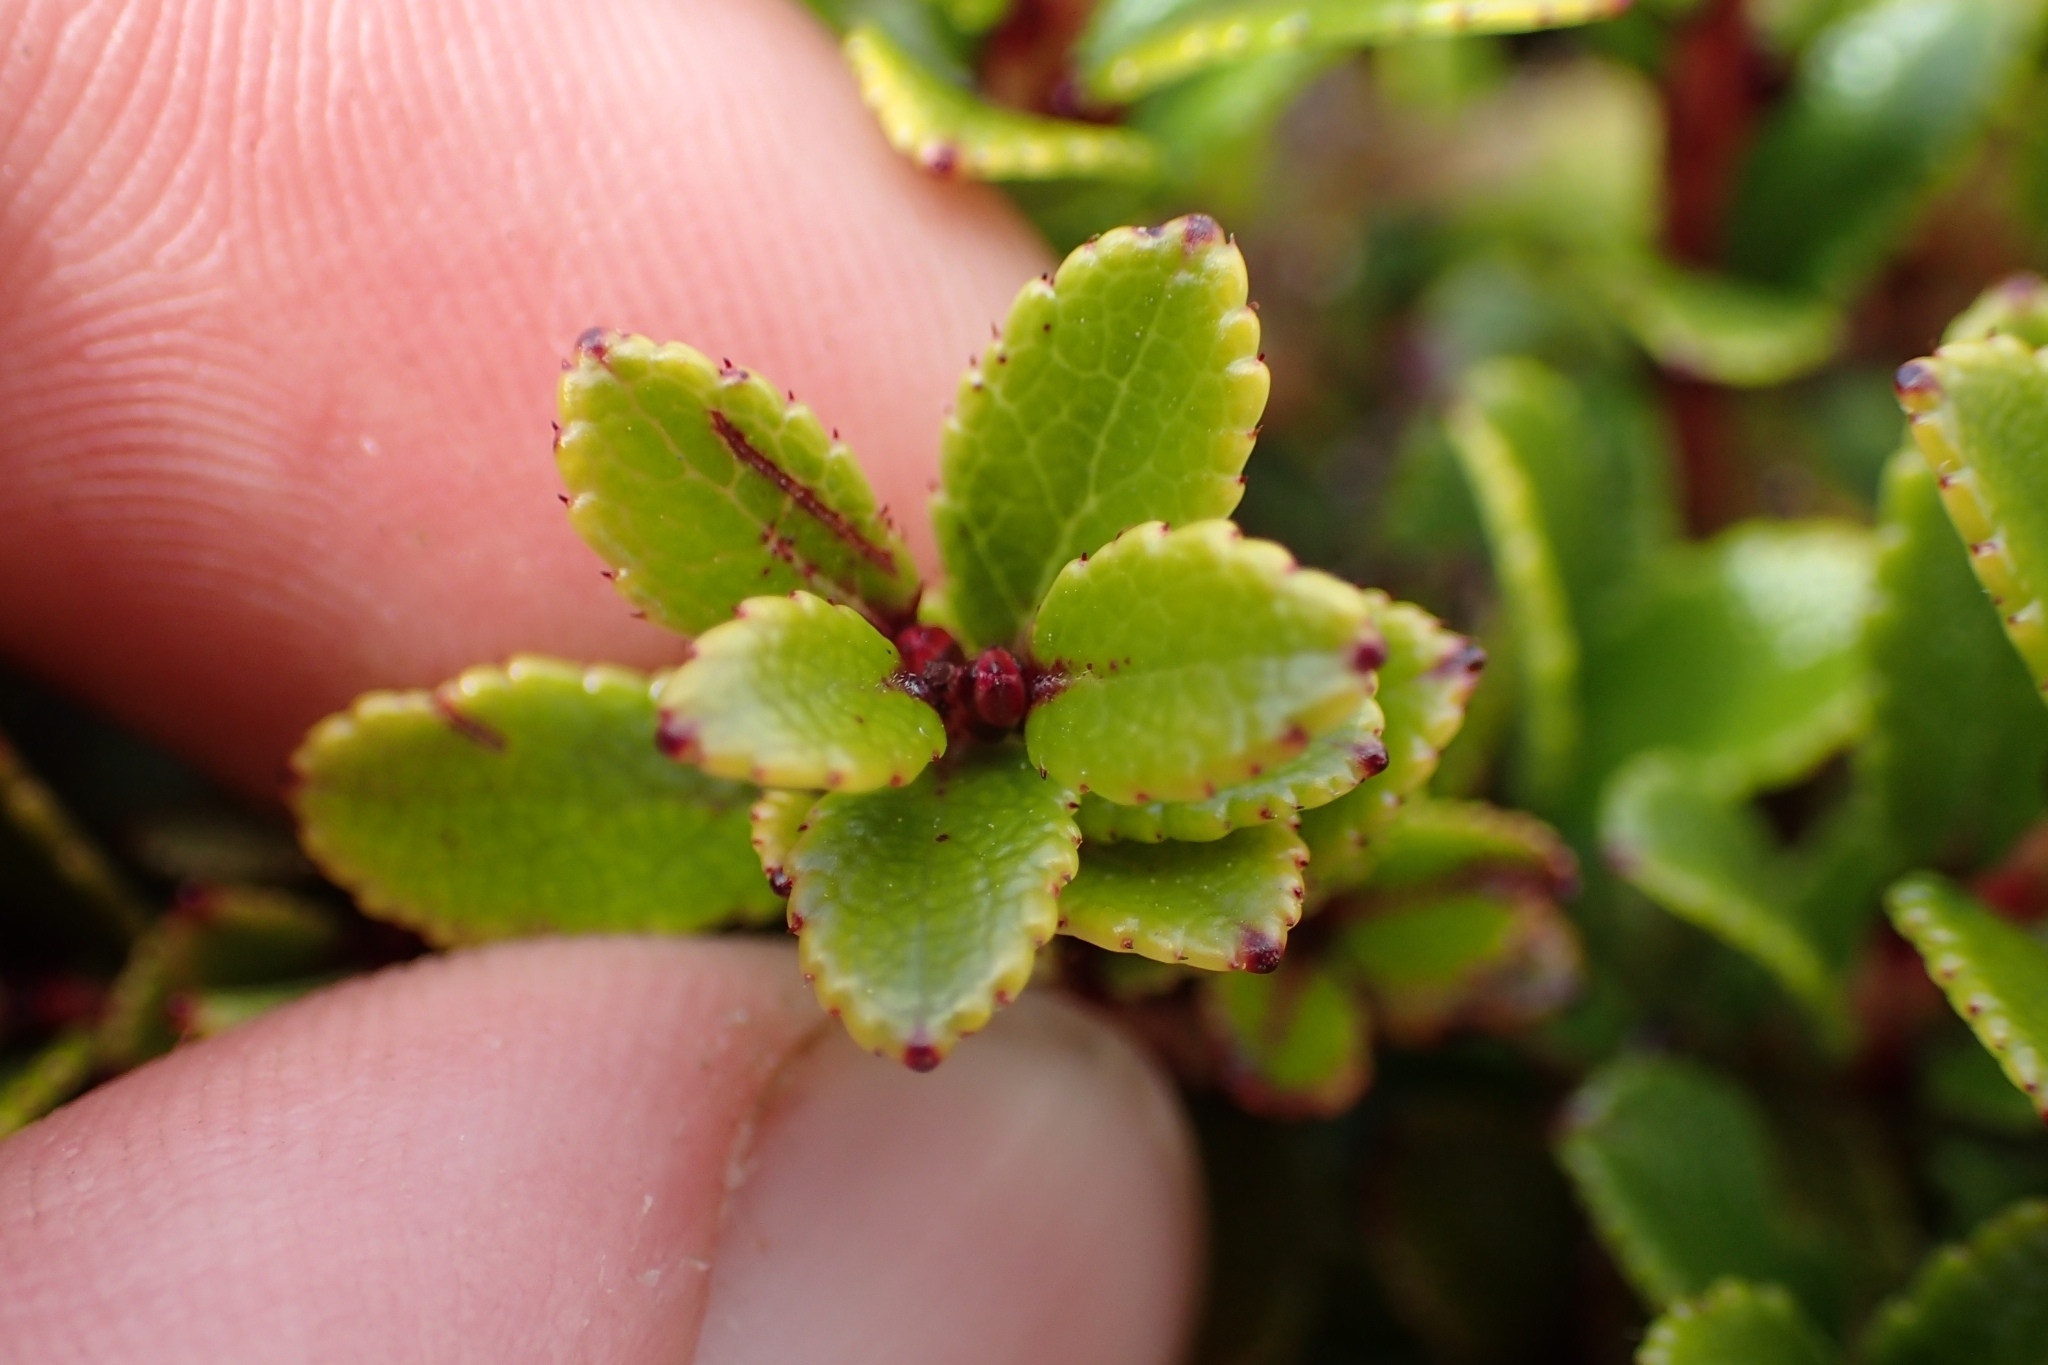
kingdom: Plantae
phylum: Tracheophyta
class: Magnoliopsida
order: Ericales
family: Ericaceae
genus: Gaultheria
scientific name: Gaultheria crassa
